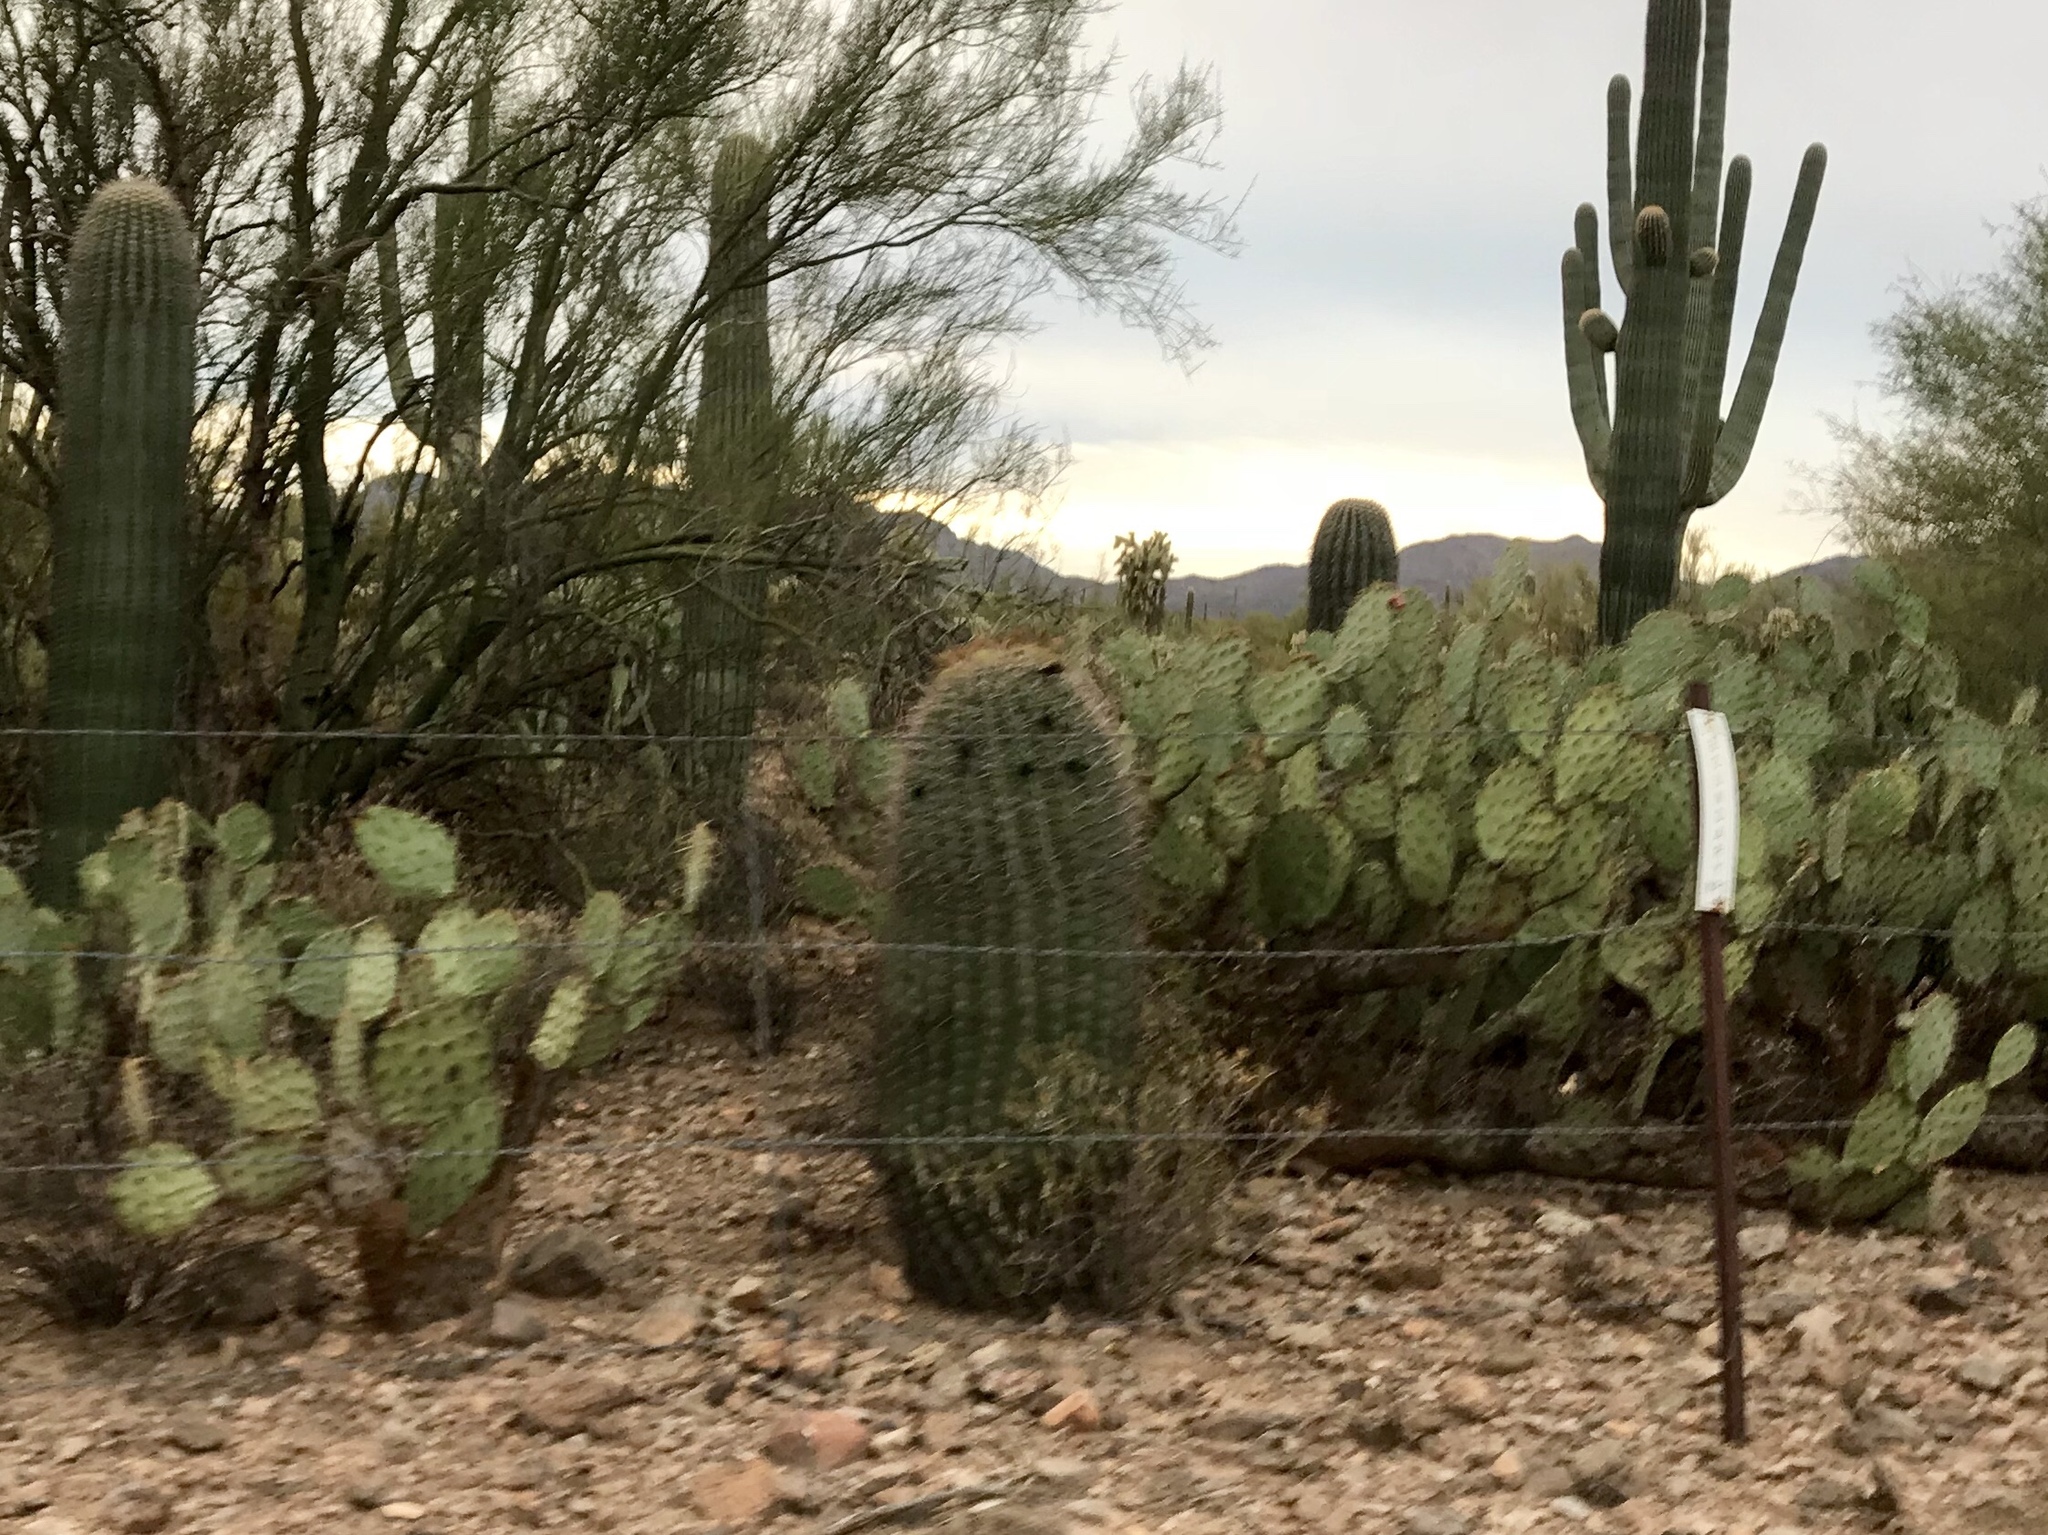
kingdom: Plantae
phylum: Tracheophyta
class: Magnoliopsida
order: Caryophyllales
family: Cactaceae
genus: Ferocactus
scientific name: Ferocactus wislizeni
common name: Candy barrel cactus
